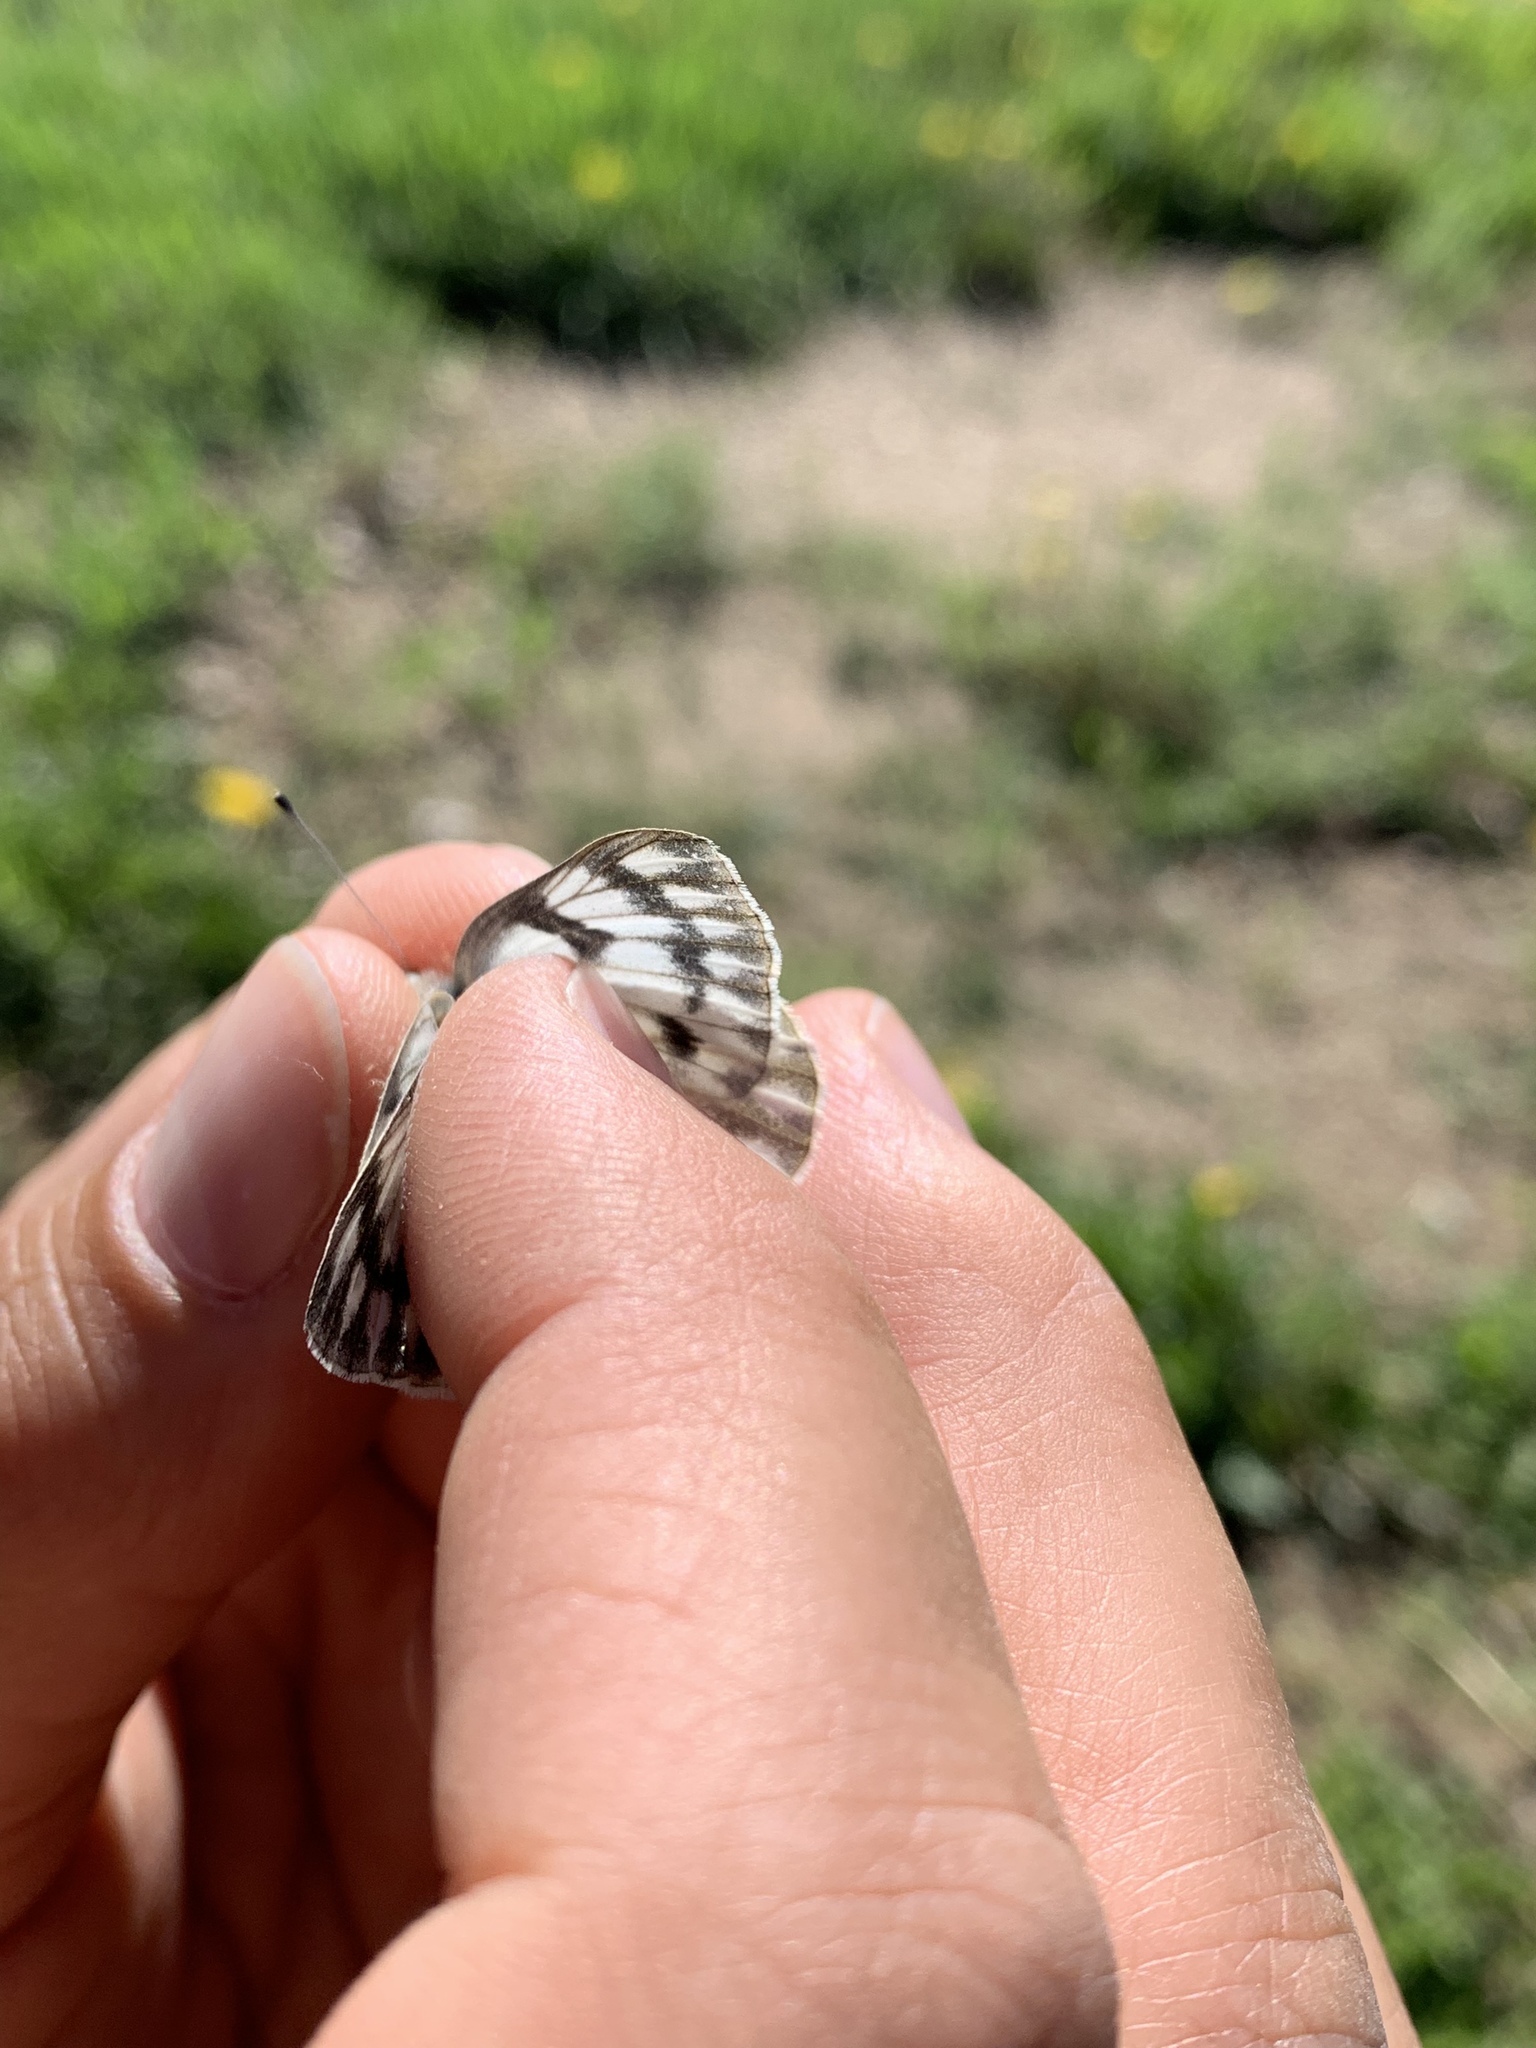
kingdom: Animalia
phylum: Arthropoda
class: Insecta
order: Lepidoptera
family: Pieridae
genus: Pontia
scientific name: Pontia occidentalis
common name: Western white
